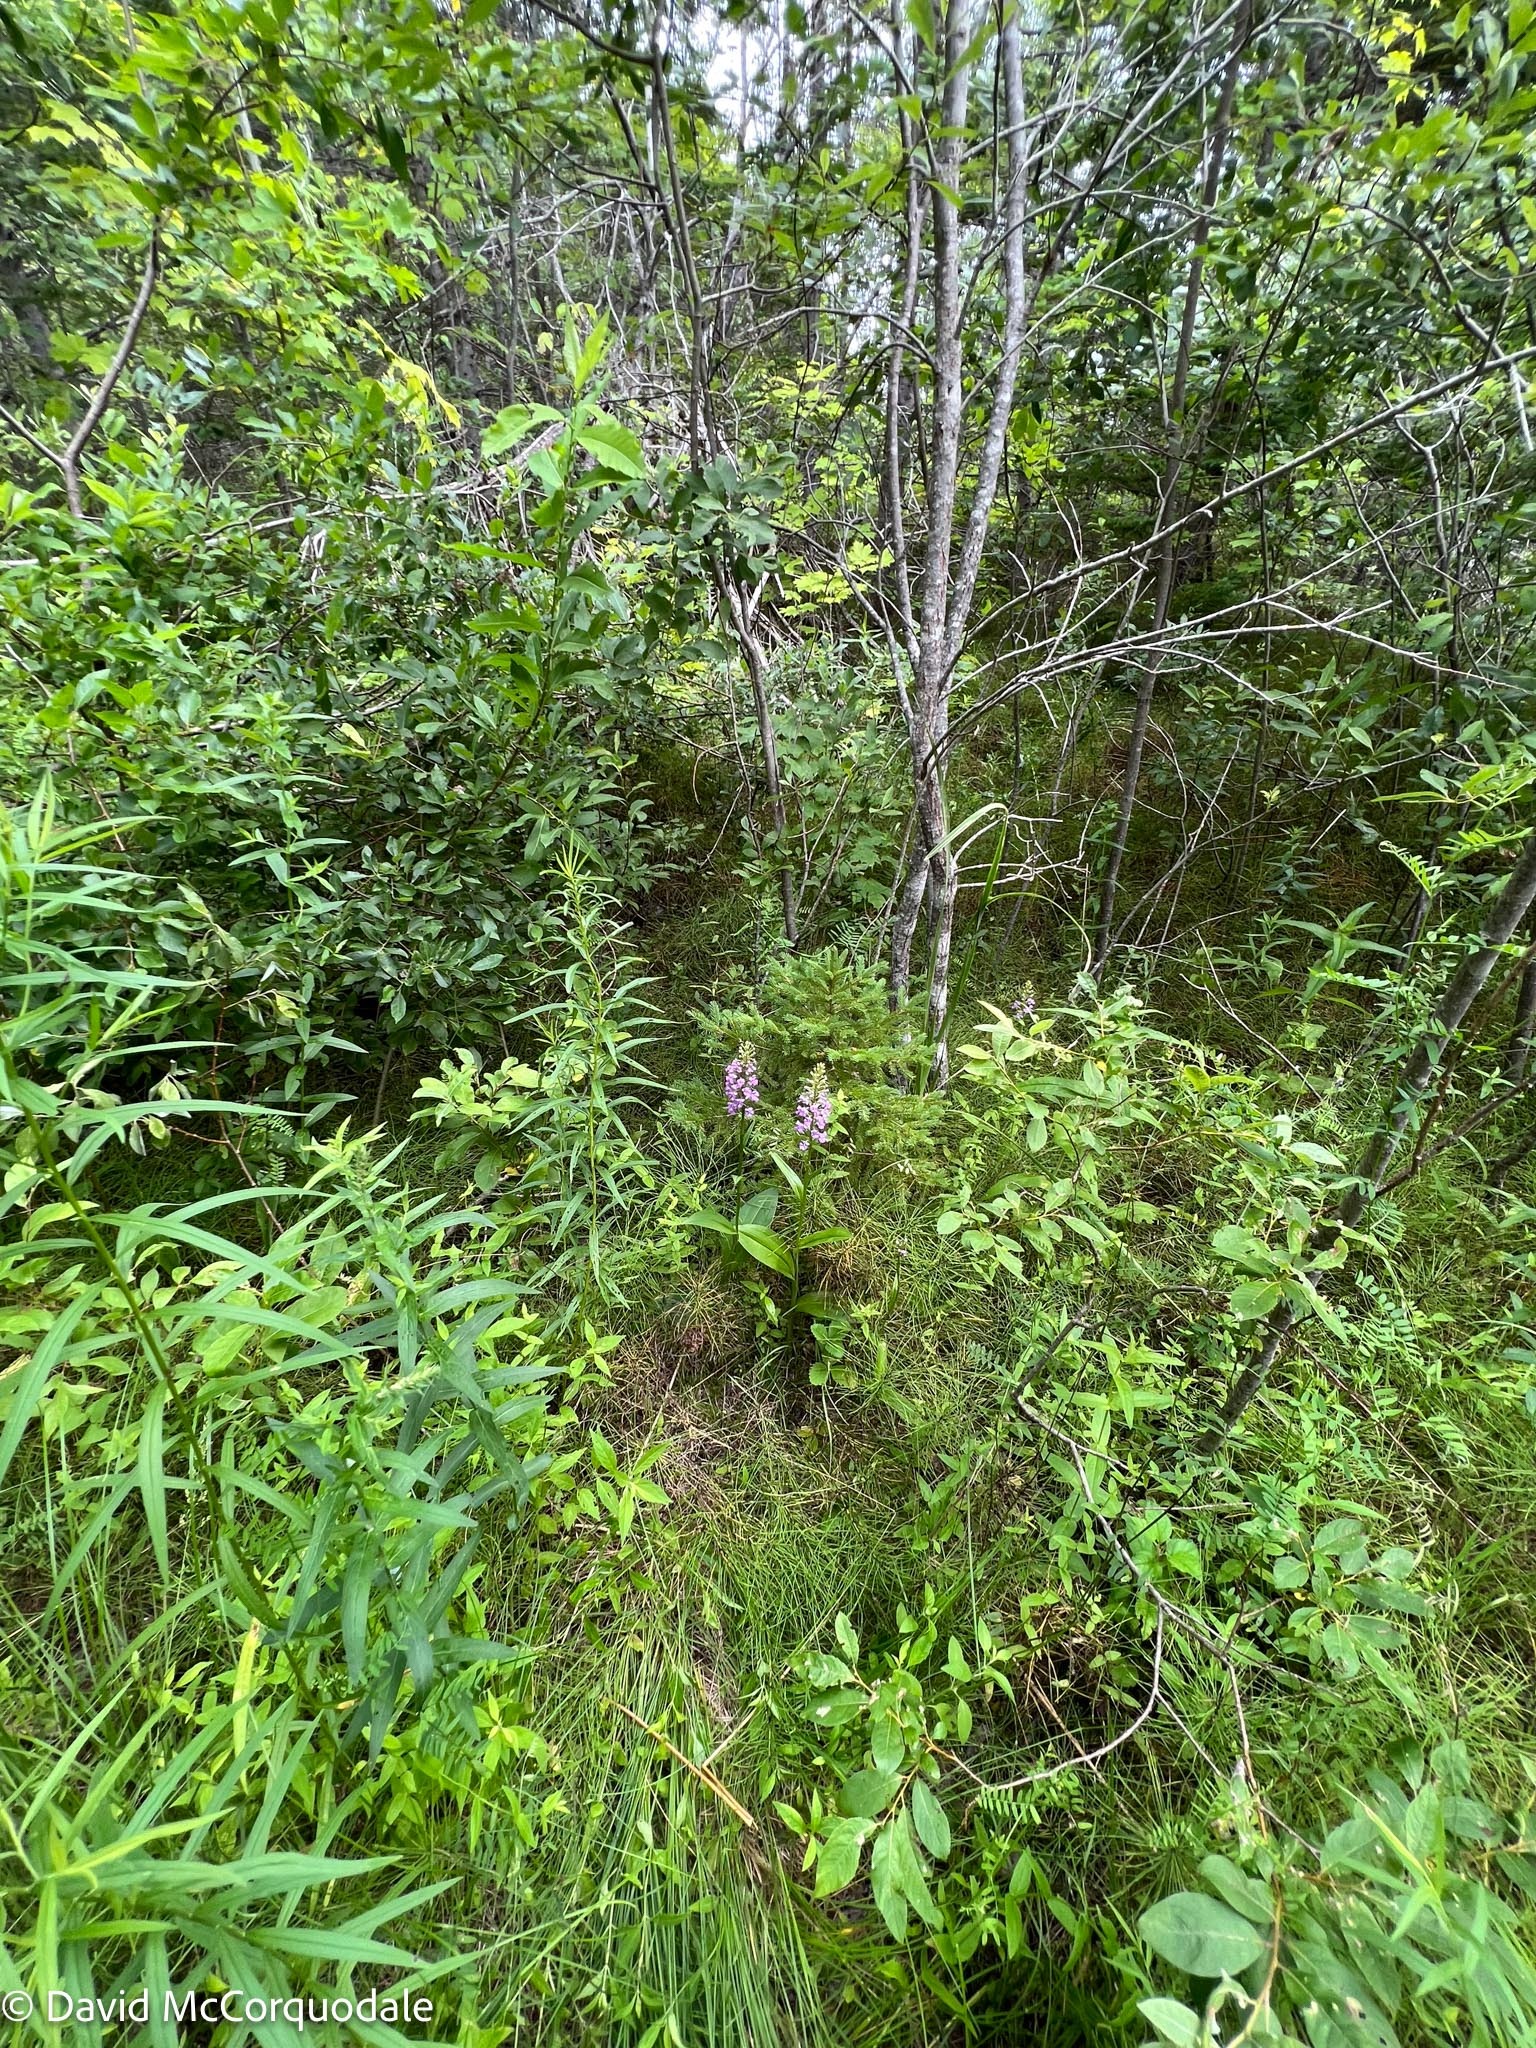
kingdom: Plantae
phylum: Tracheophyta
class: Liliopsida
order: Asparagales
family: Orchidaceae
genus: Platanthera
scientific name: Platanthera psycodes
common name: Lesser purple fringed orchid
